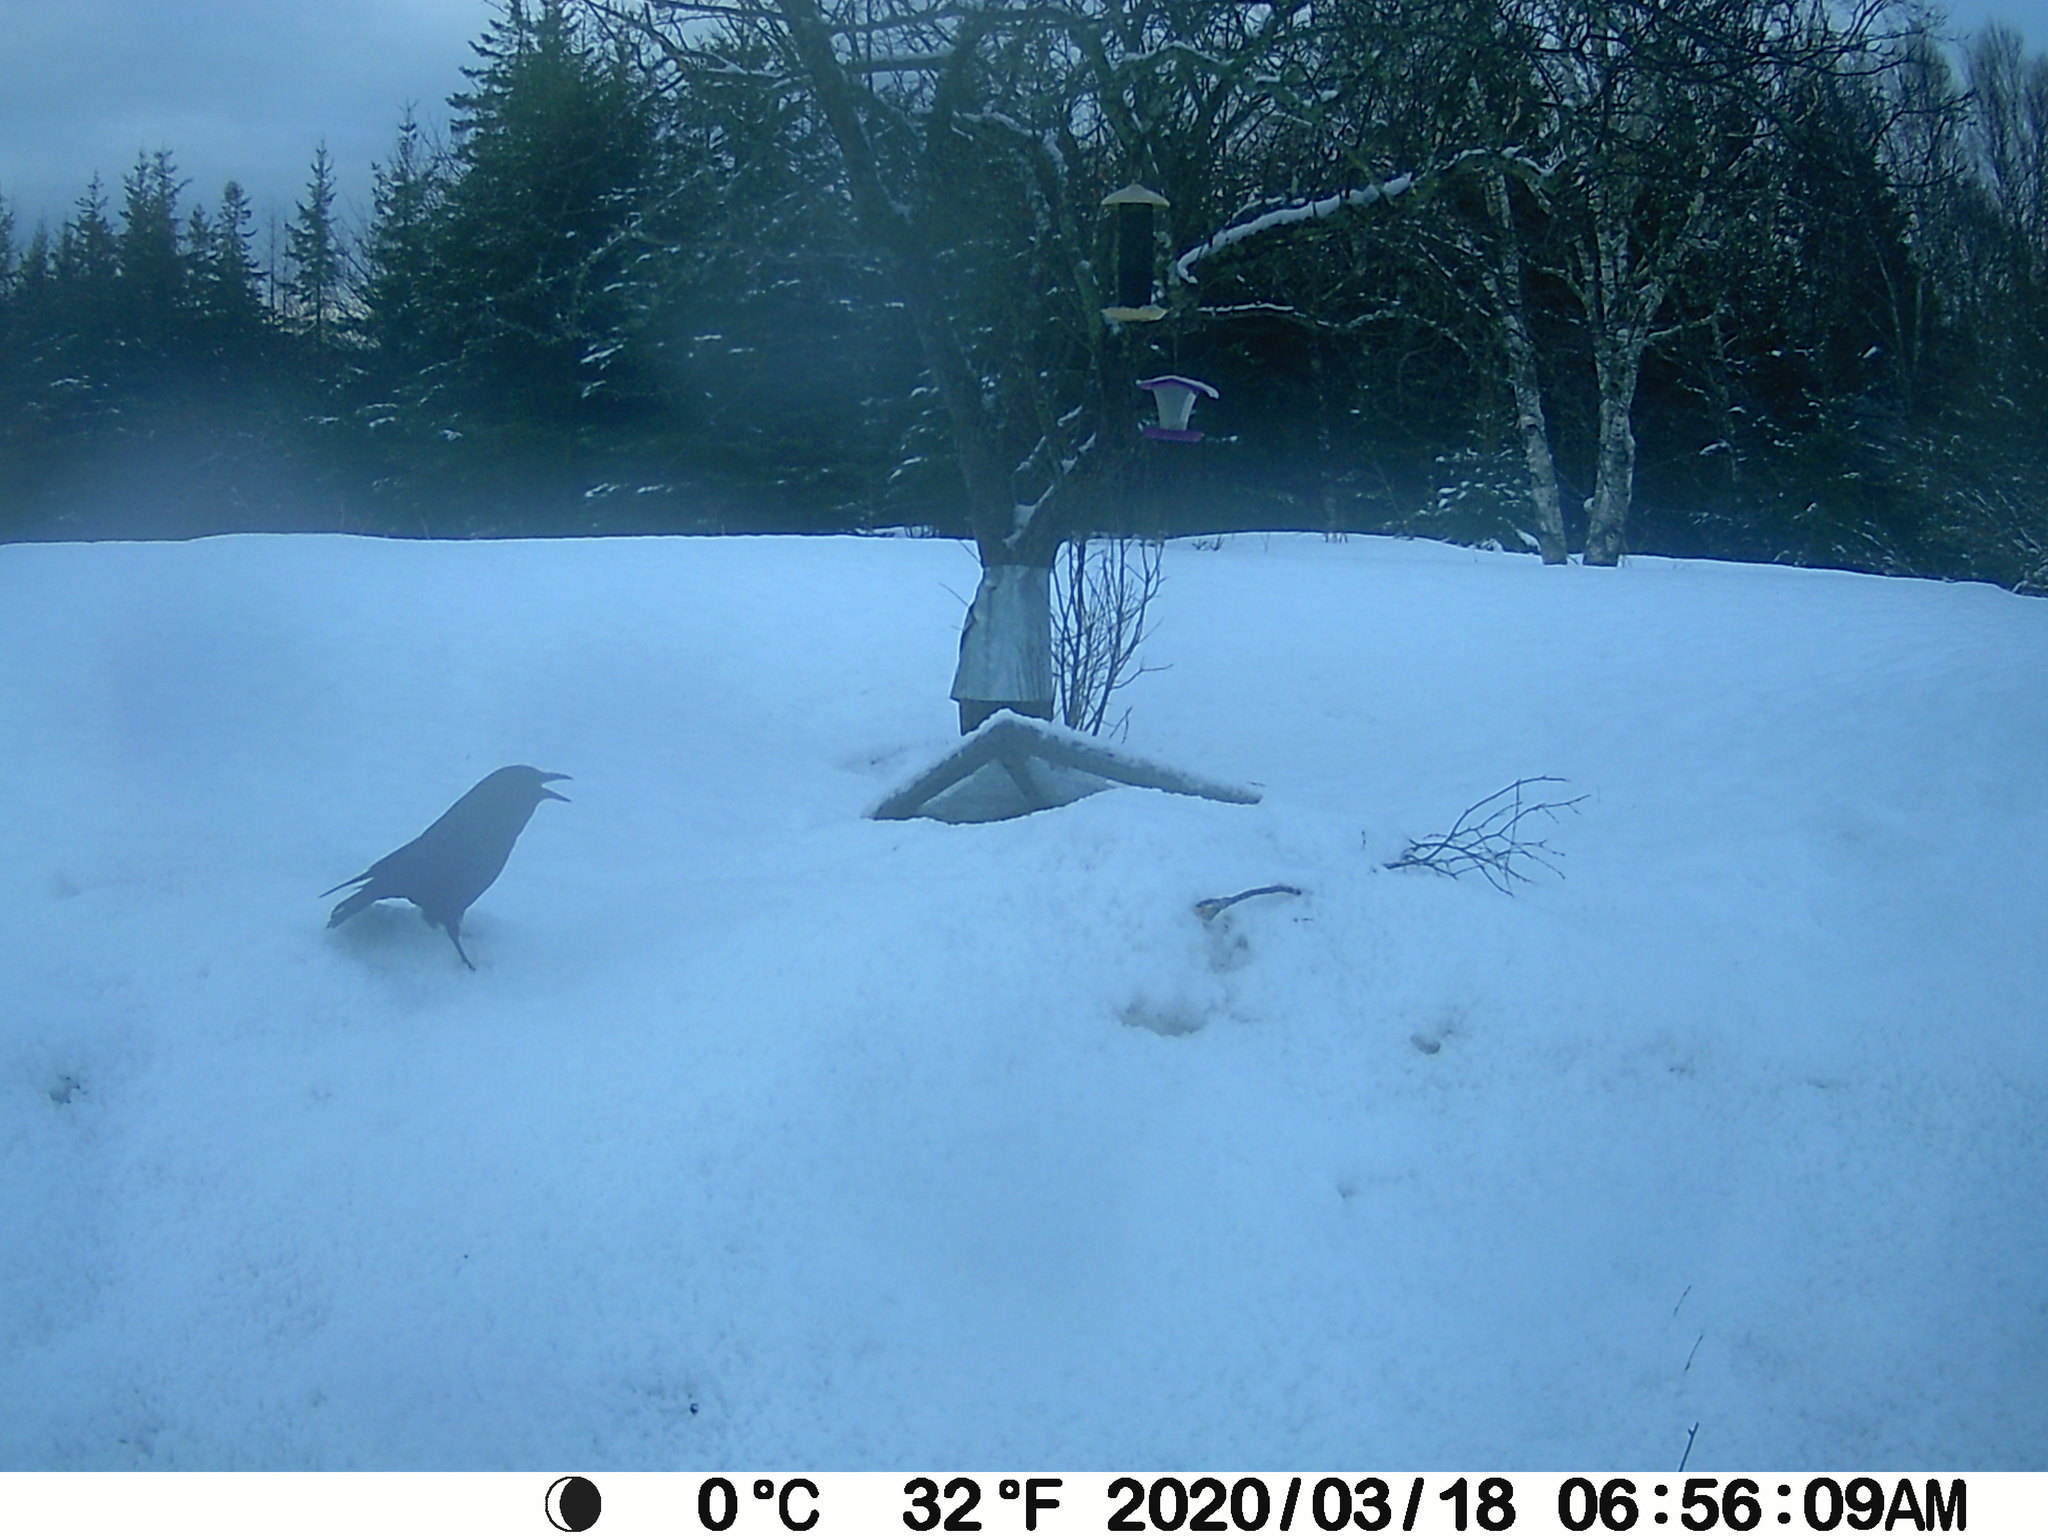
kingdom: Animalia
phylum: Chordata
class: Aves
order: Passeriformes
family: Corvidae
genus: Corvus
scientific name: Corvus brachyrhynchos
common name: American crow
